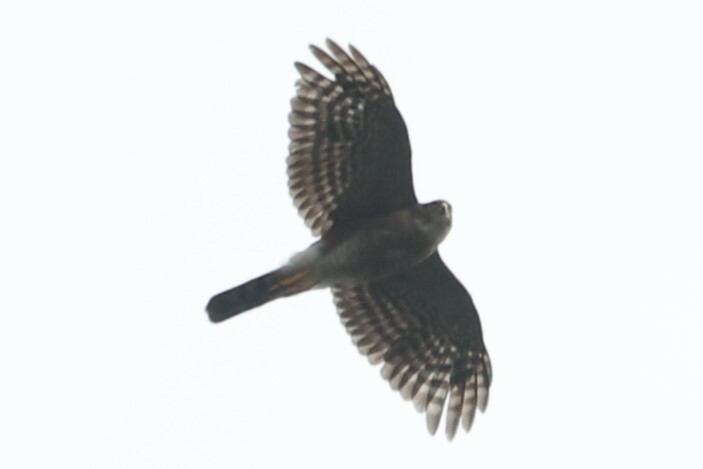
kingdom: Animalia
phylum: Chordata
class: Aves
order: Accipitriformes
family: Accipitridae
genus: Accipiter
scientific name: Accipiter striatus
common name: Sharp-shinned hawk
